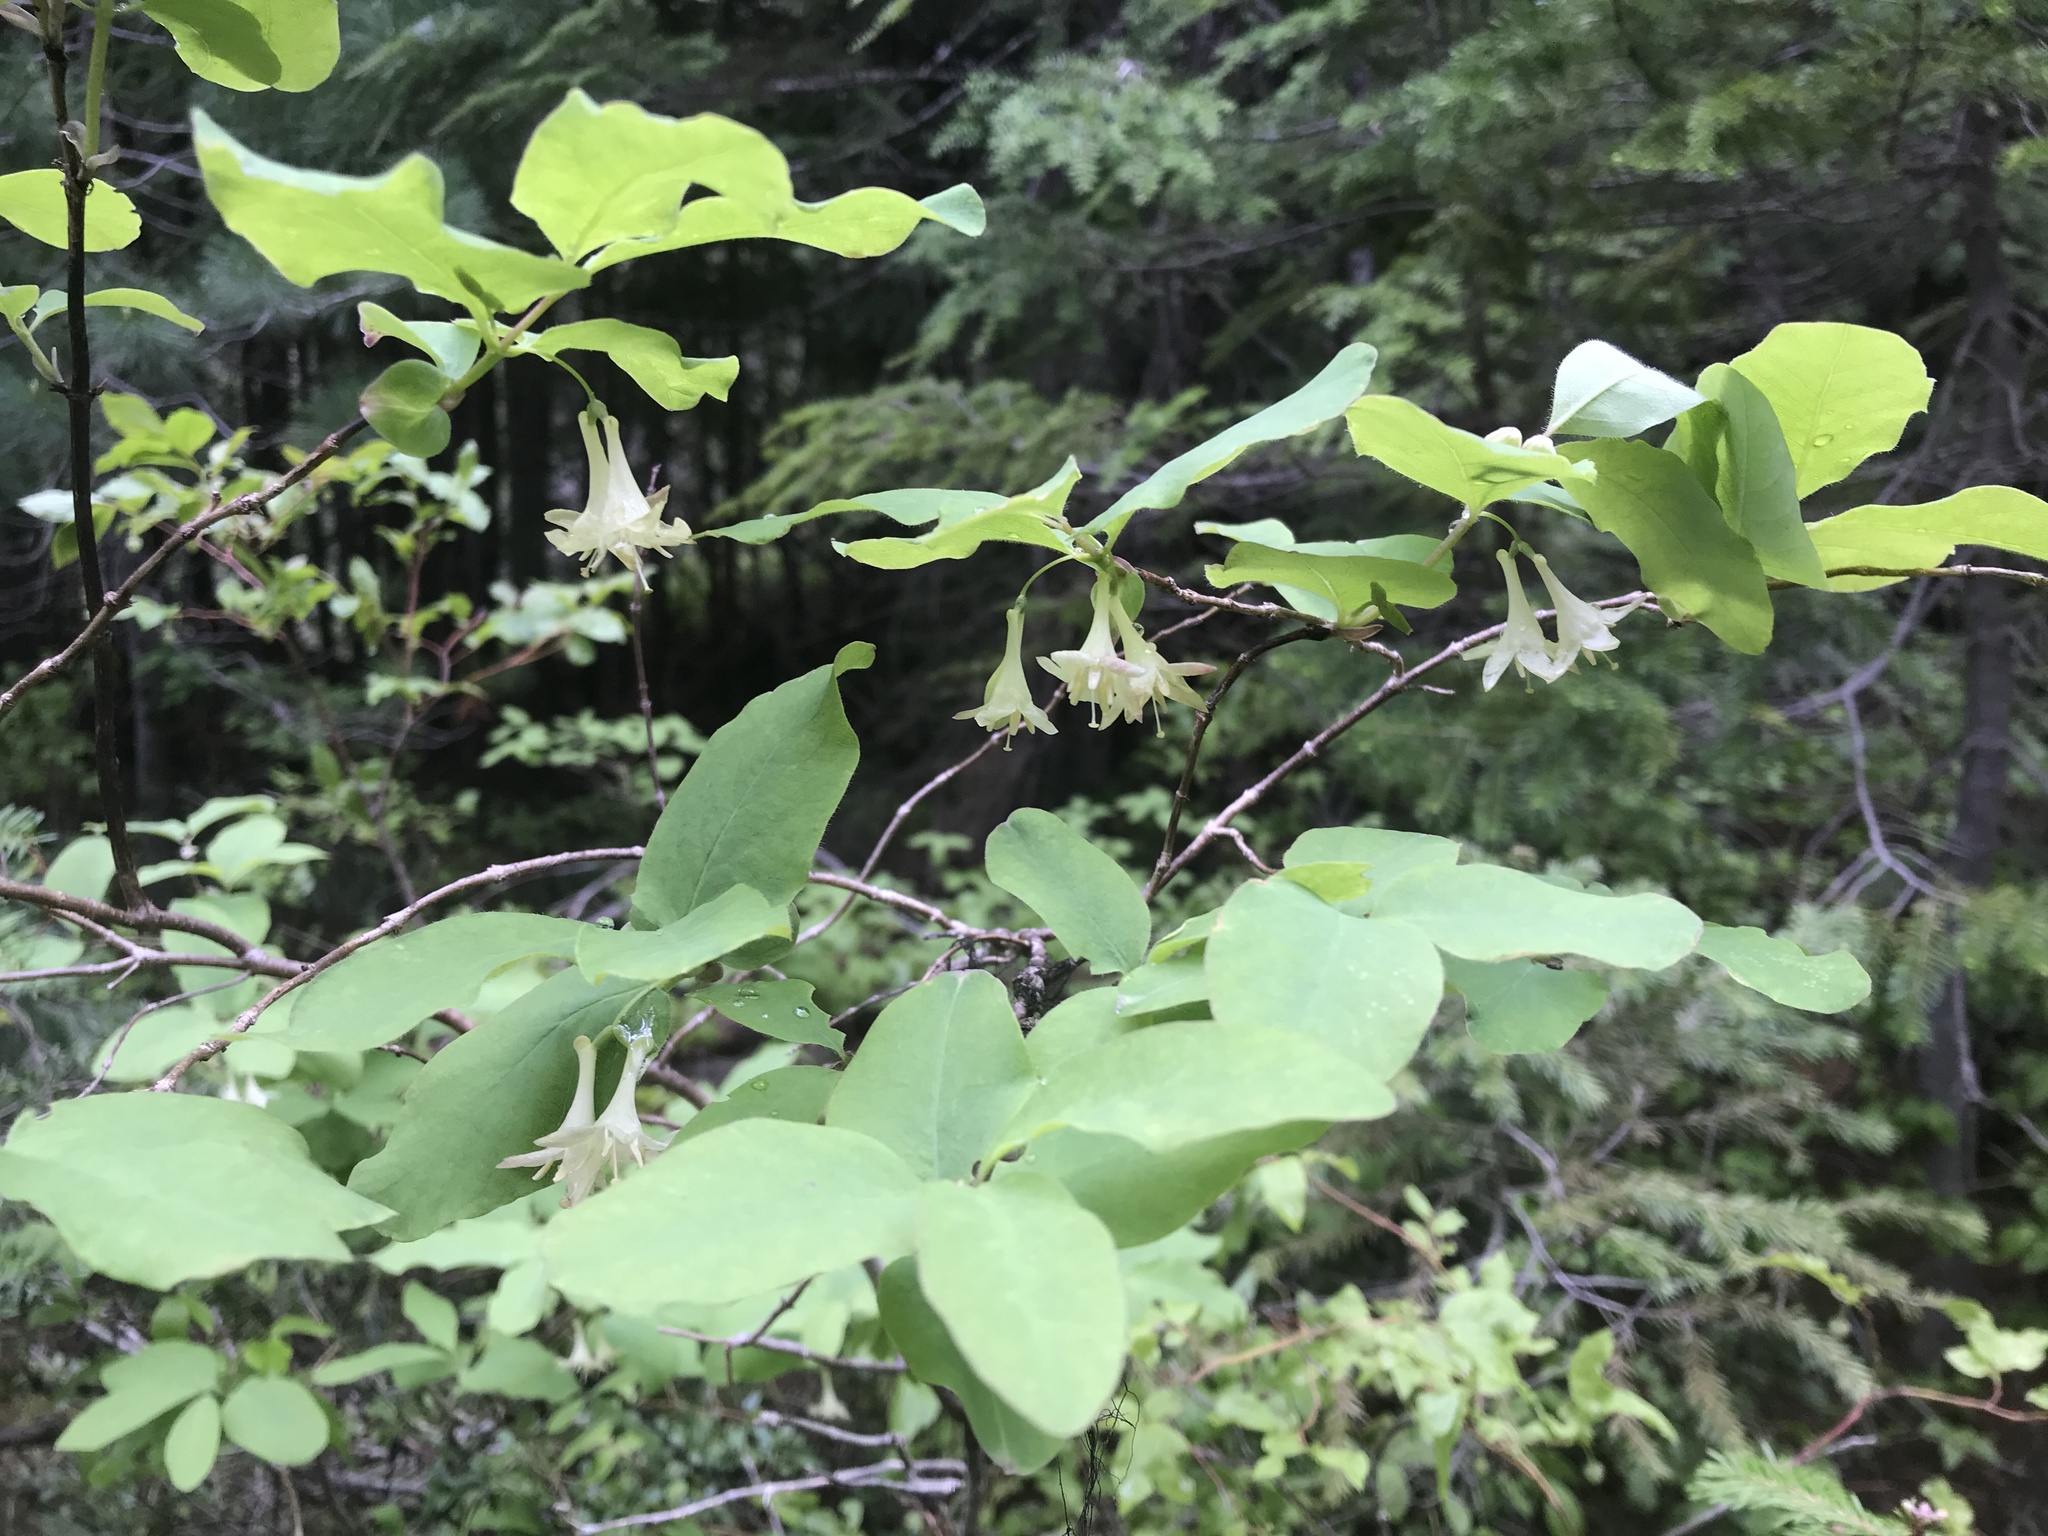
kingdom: Plantae
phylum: Tracheophyta
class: Magnoliopsida
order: Dipsacales
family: Caprifoliaceae
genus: Lonicera
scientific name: Lonicera utahensis
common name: Utah honeysuckle
